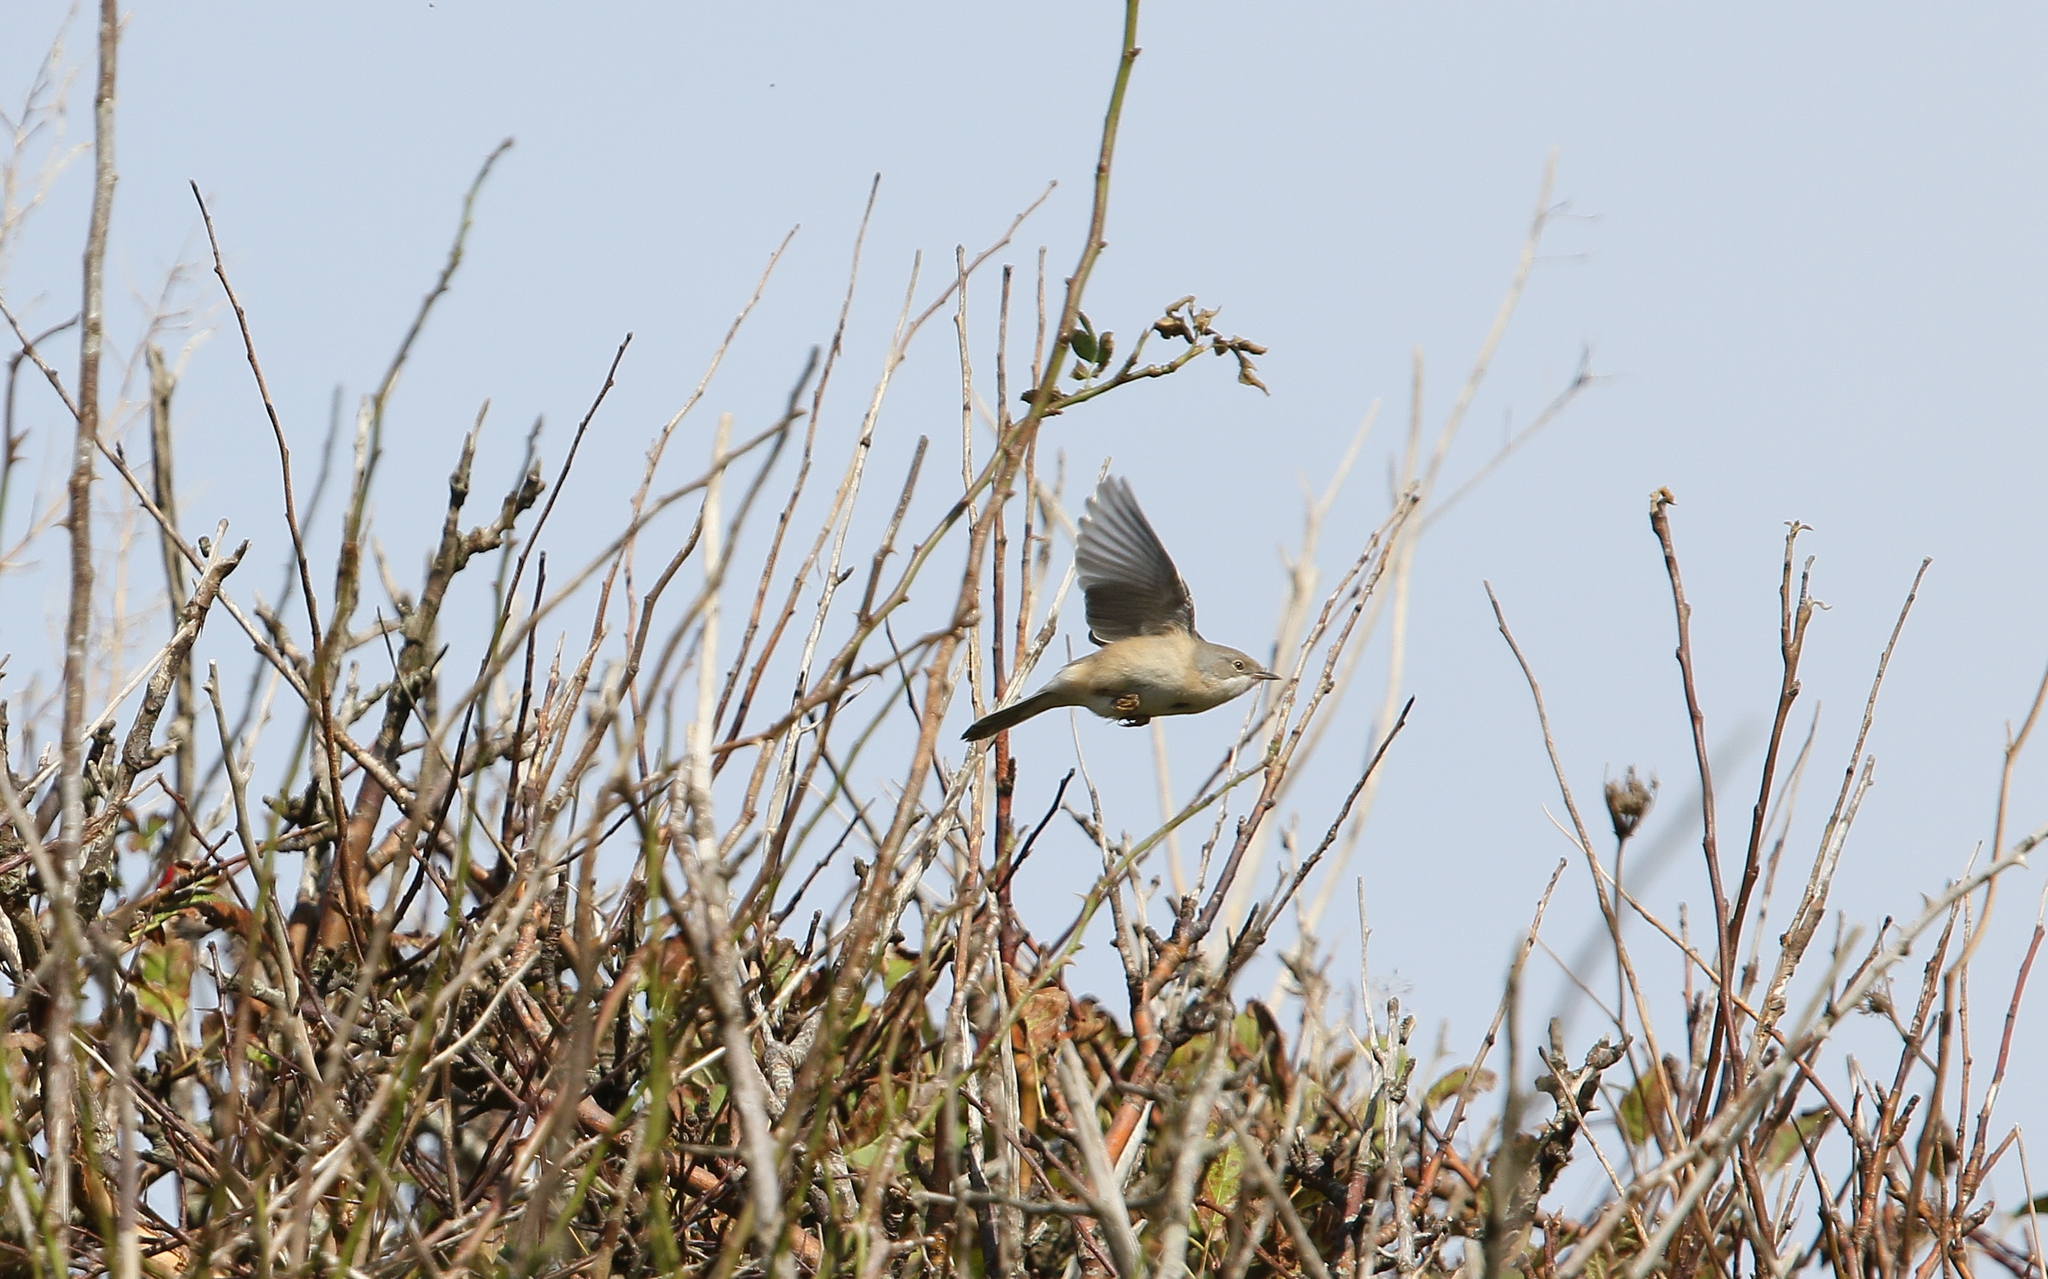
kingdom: Animalia
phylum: Chordata
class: Aves
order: Passeriformes
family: Sylviidae
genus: Curruca
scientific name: Curruca cantillans
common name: Subalpine warbler
